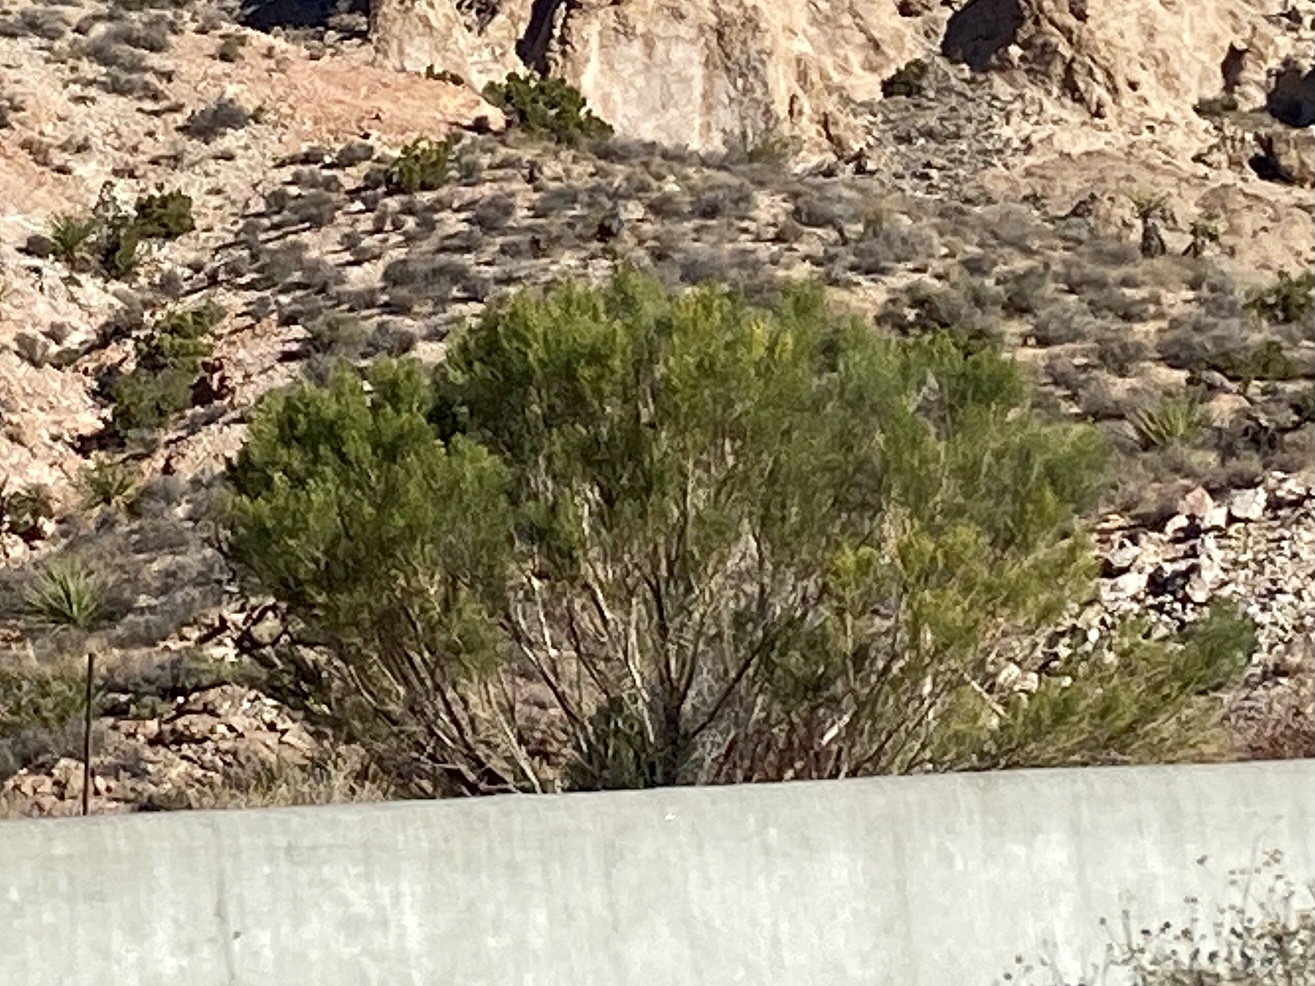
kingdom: Plantae
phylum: Tracheophyta
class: Magnoliopsida
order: Asterales
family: Asteraceae
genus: Baccharis
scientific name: Baccharis sarothroides
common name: Desert-broom
